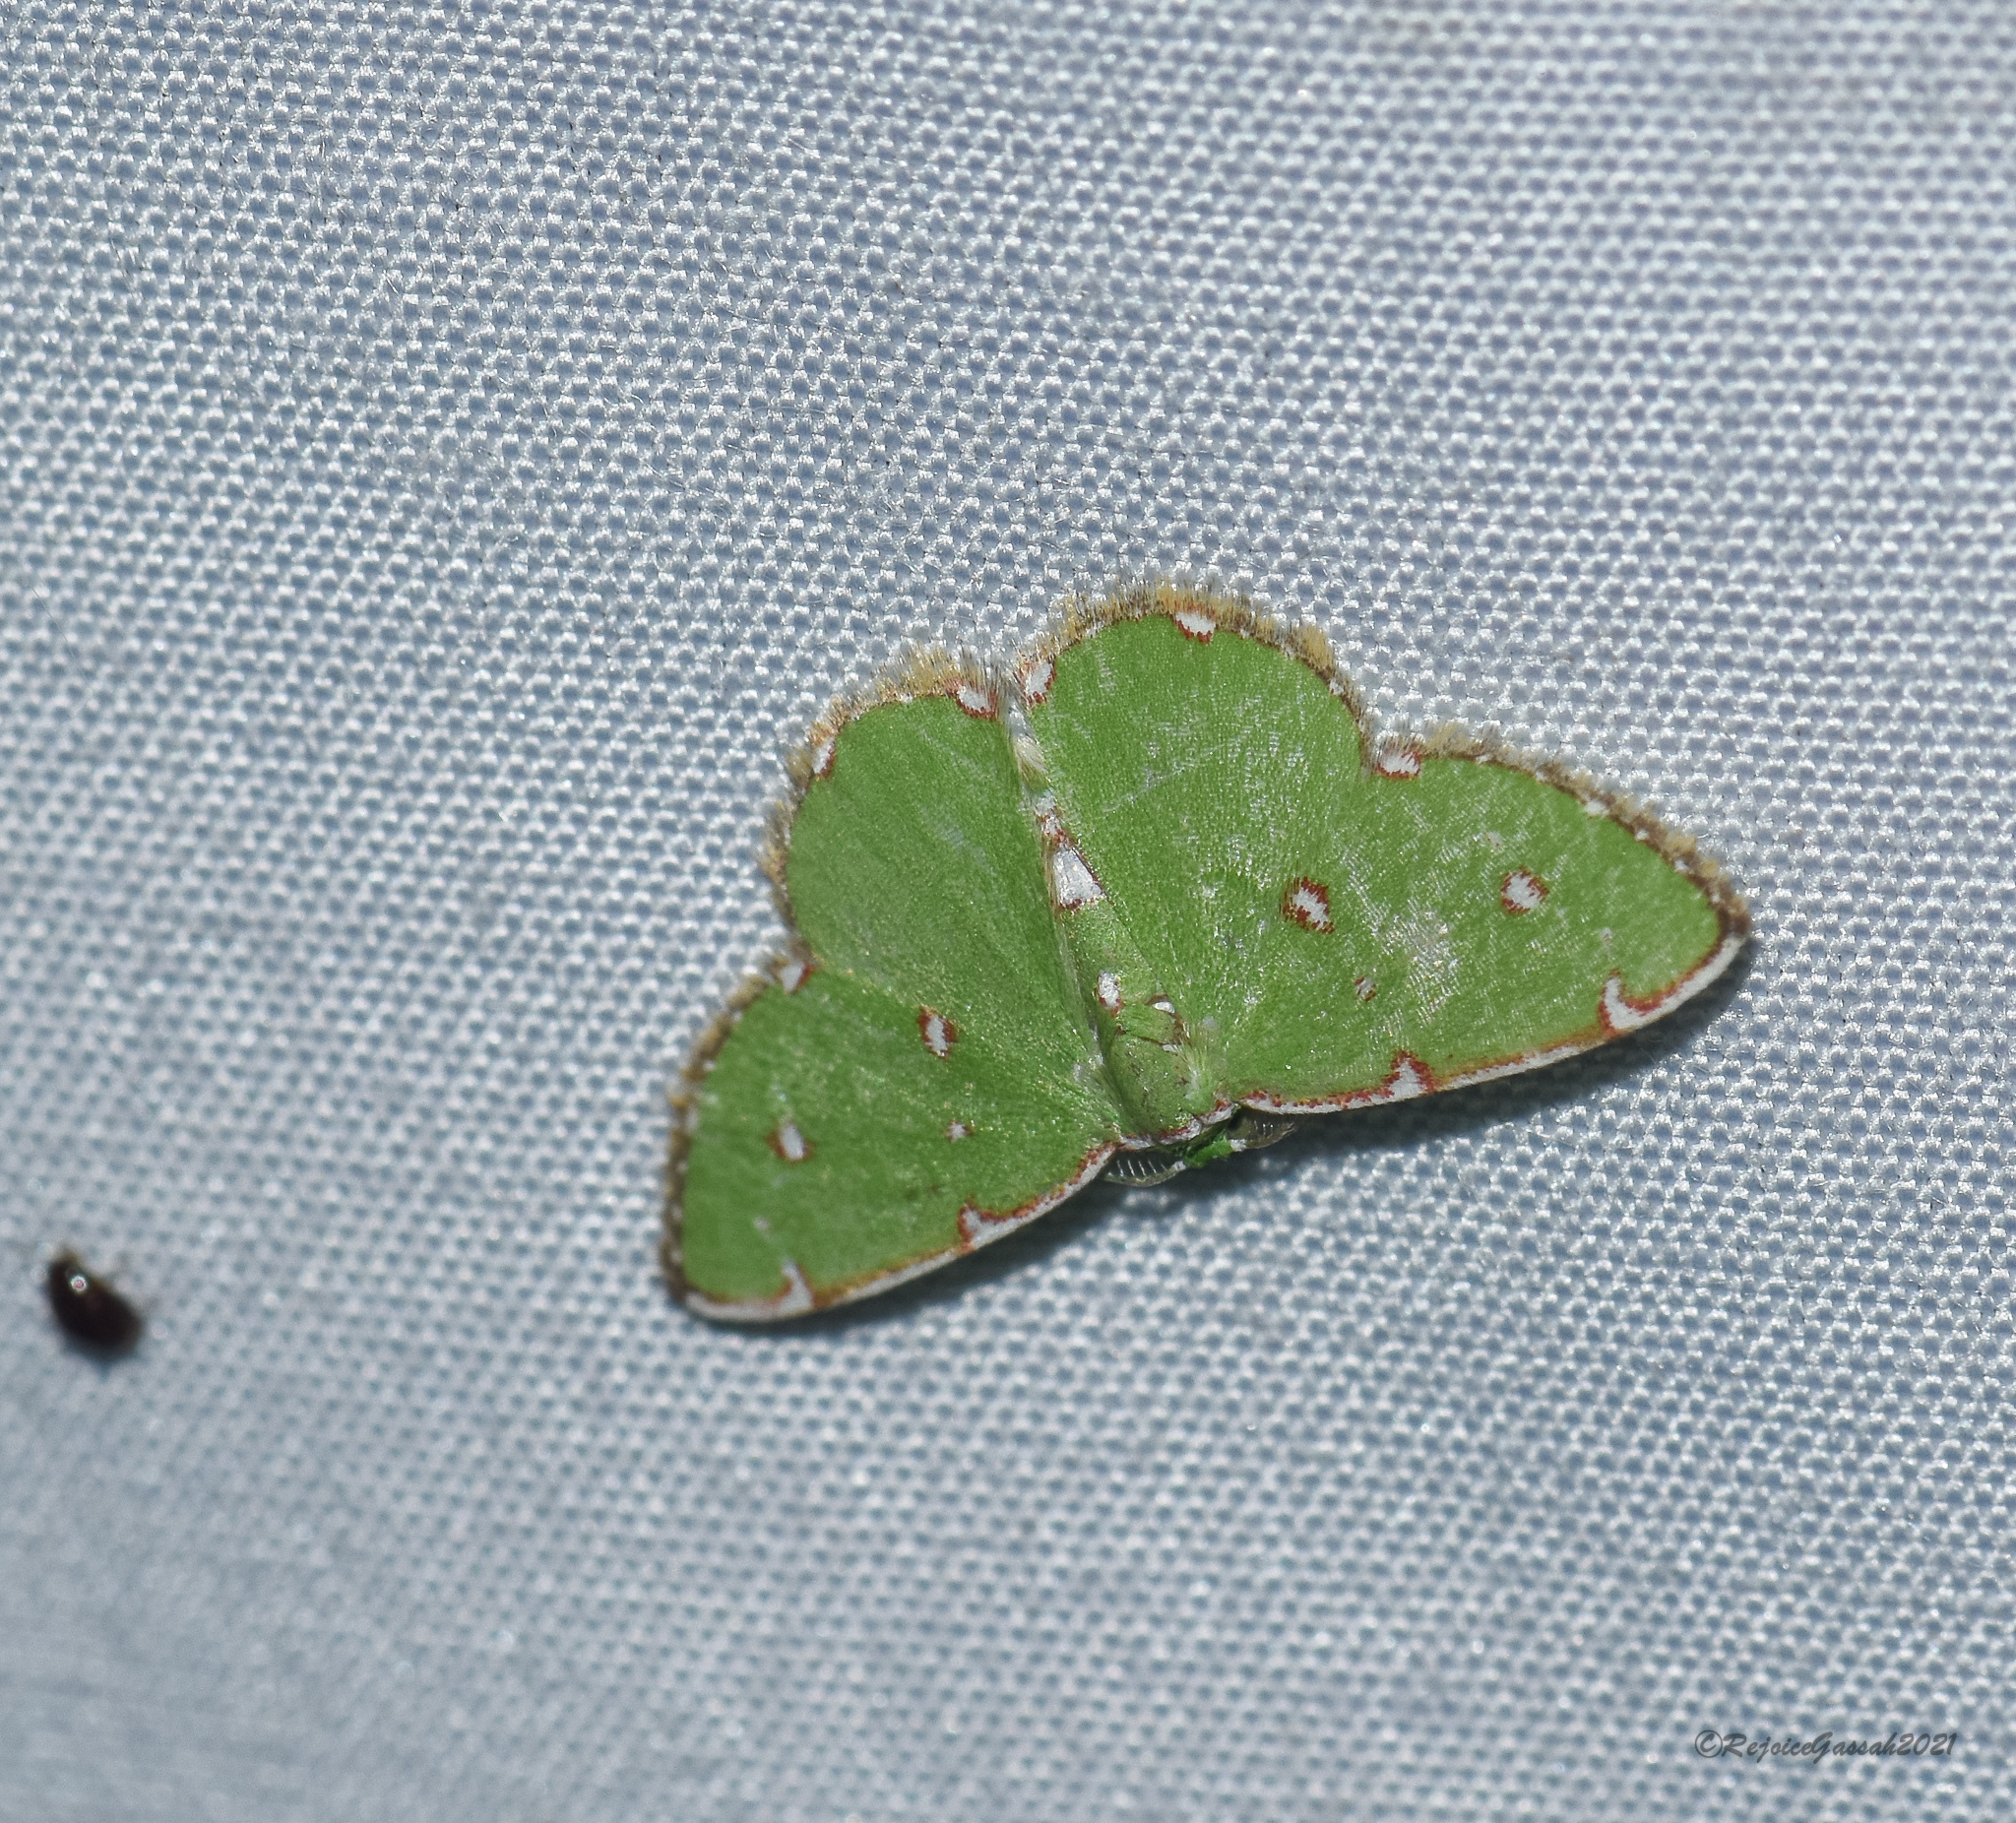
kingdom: Animalia
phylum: Arthropoda
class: Insecta
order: Lepidoptera
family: Geometridae
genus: Argyrocosma
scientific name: Argyrocosma inductaria
